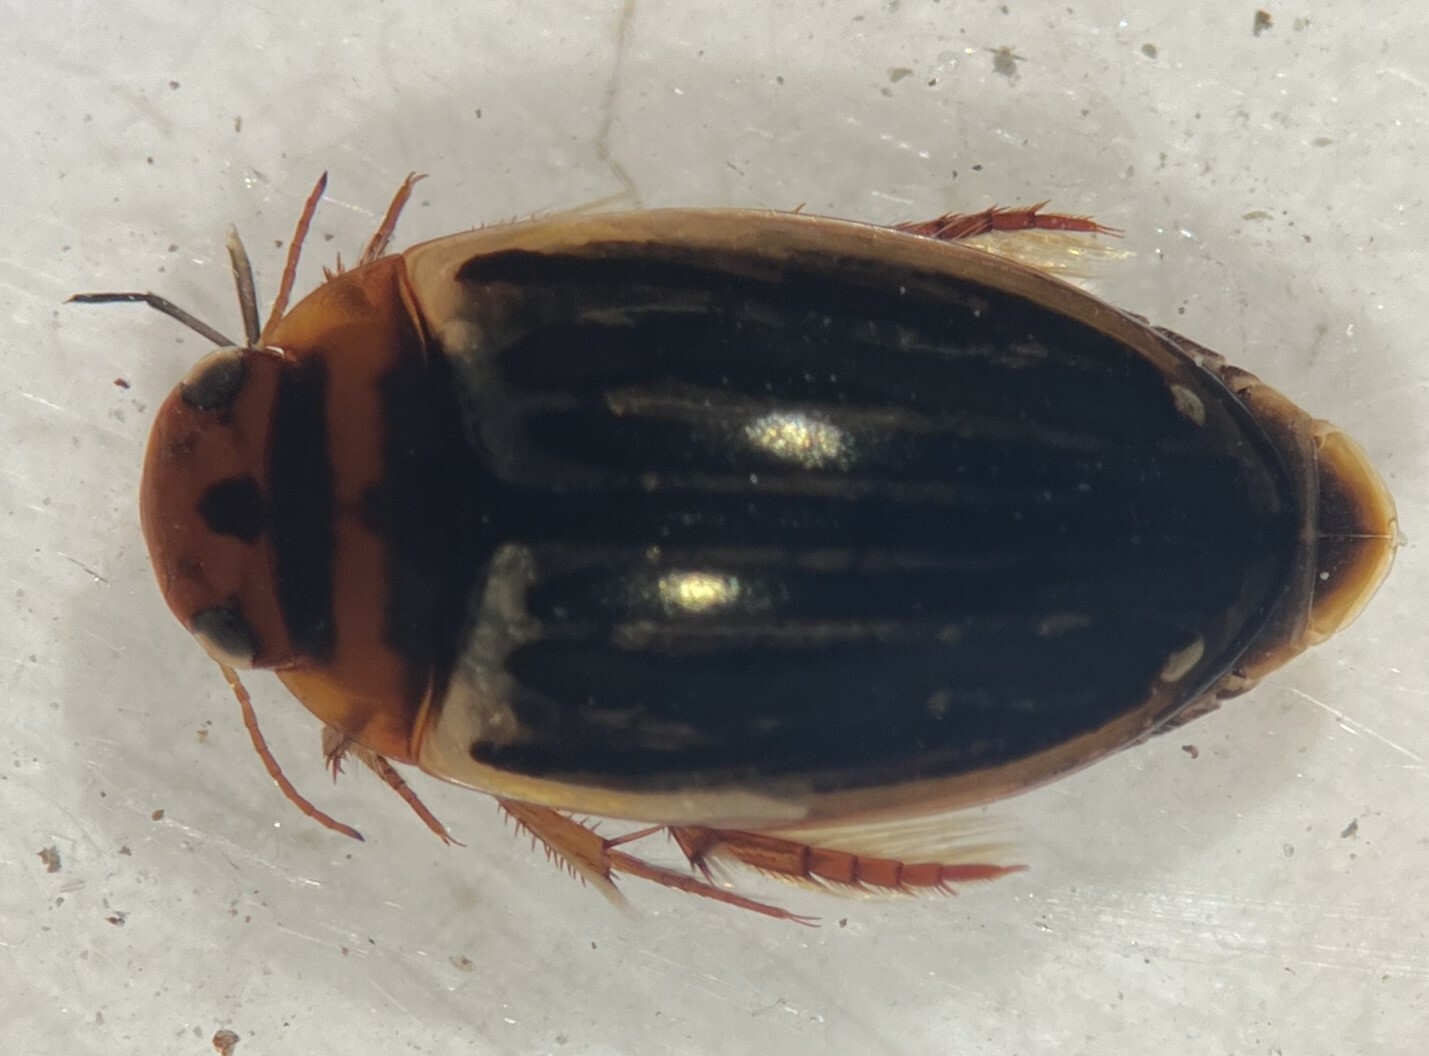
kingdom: Animalia
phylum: Arthropoda
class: Insecta
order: Coleoptera
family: Dytiscidae
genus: Agabus
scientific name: Agabus disintegratus
